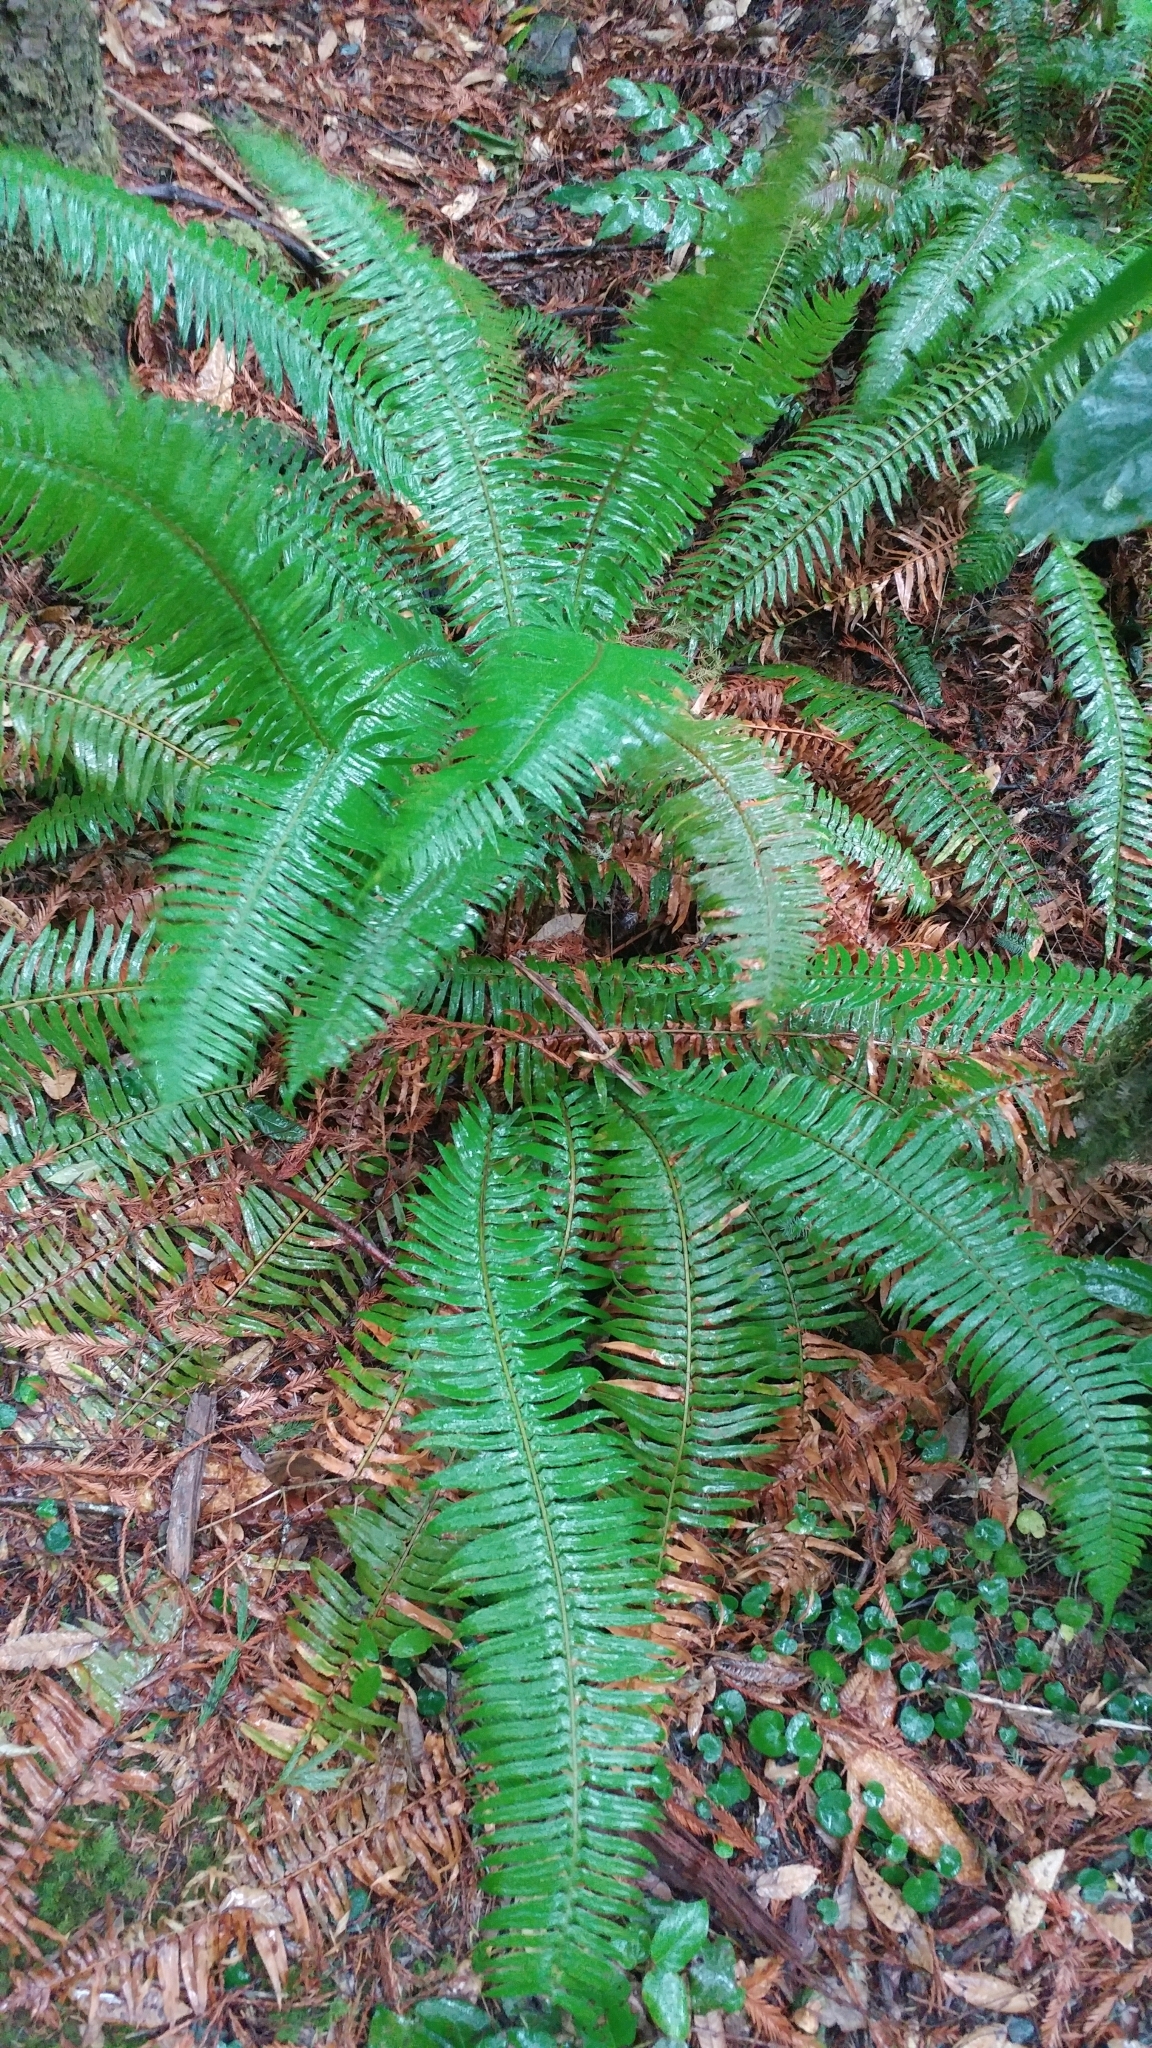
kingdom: Plantae
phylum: Tracheophyta
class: Polypodiopsida
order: Polypodiales
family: Dryopteridaceae
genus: Polystichum
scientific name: Polystichum munitum
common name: Western sword-fern
